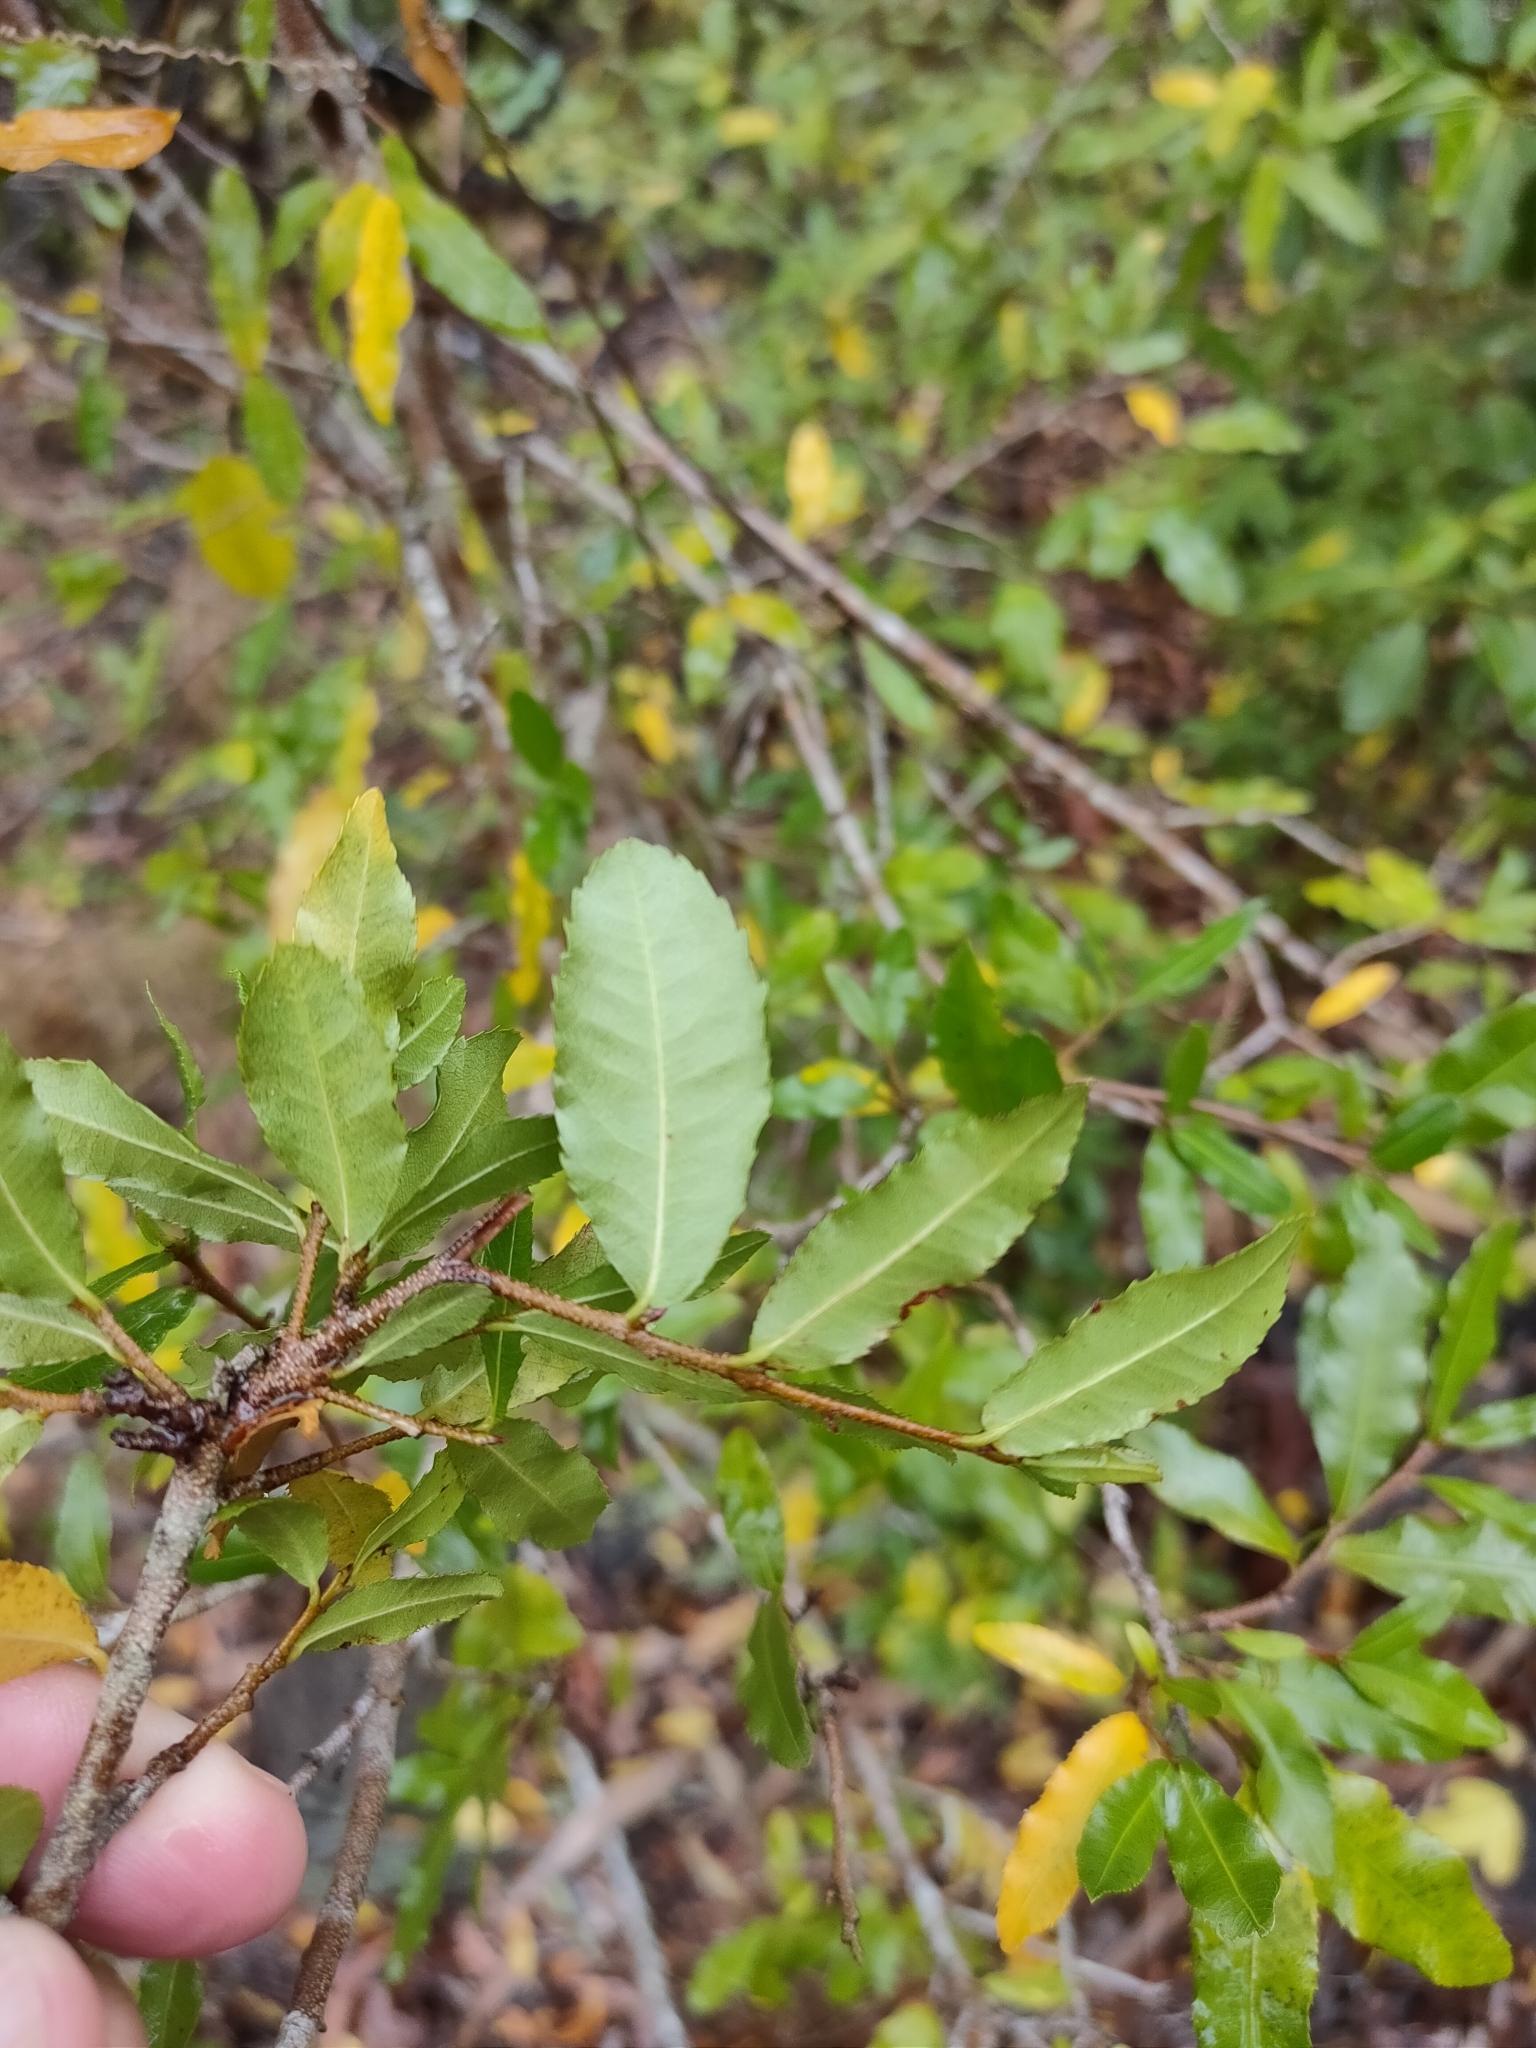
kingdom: Plantae
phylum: Tracheophyta
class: Magnoliopsida
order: Malpighiales
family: Ochnaceae
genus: Ochna
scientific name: Ochna serrulata
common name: Mickey mouse plant
